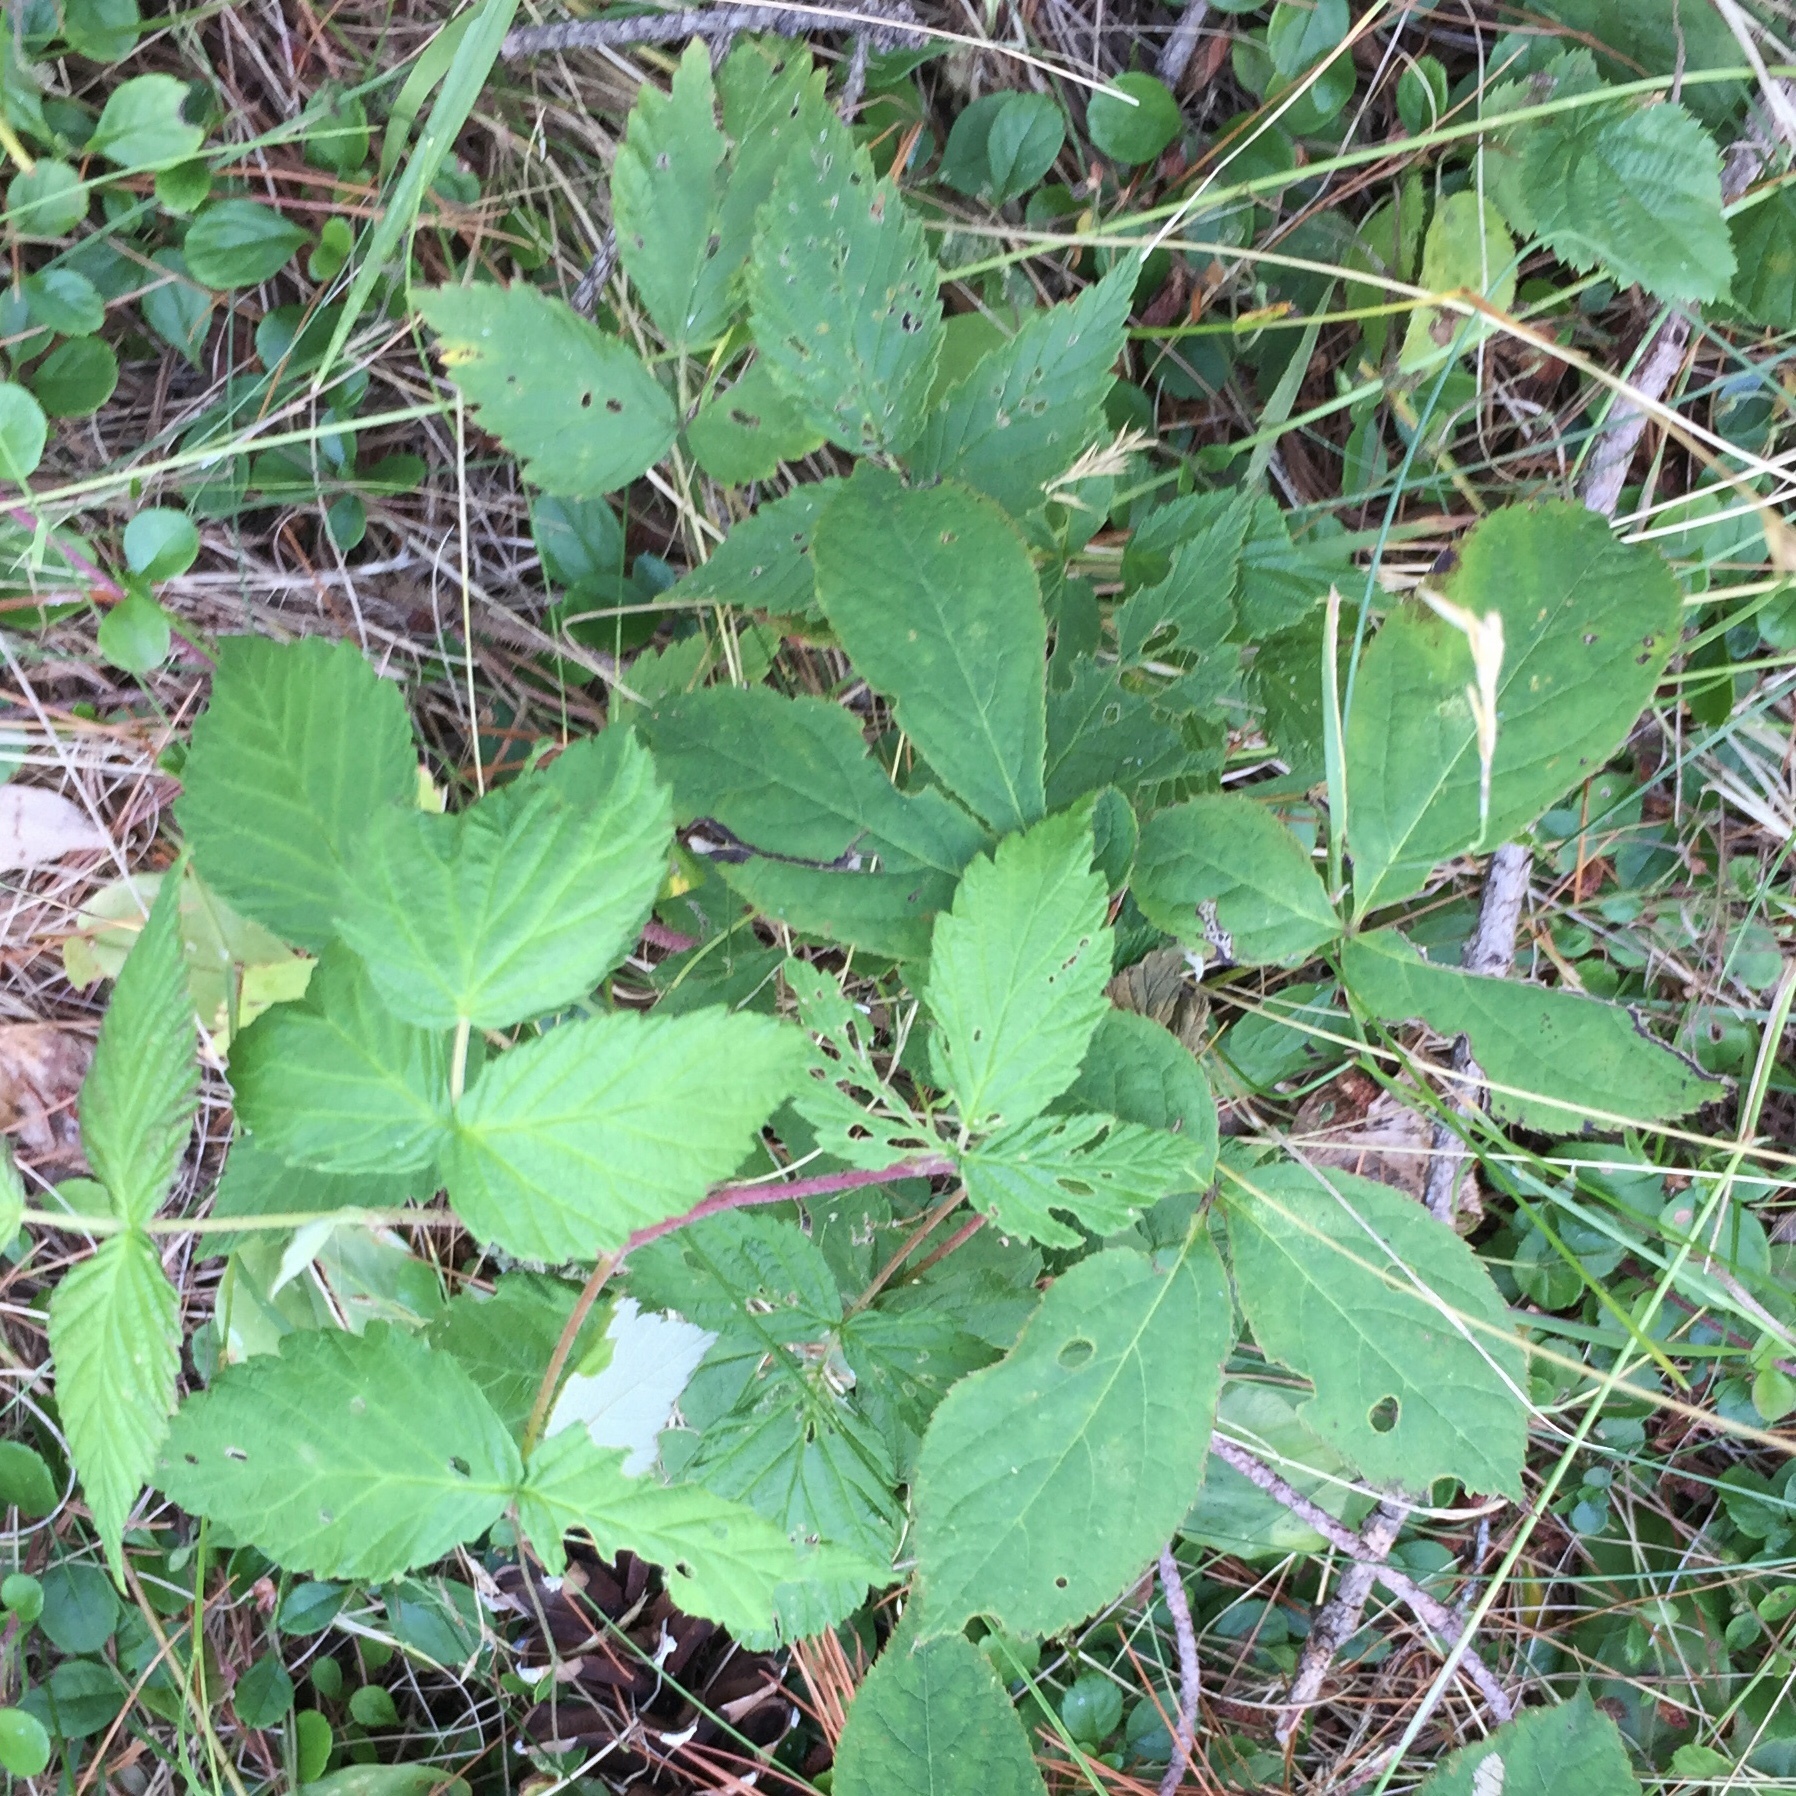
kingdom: Plantae
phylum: Tracheophyta
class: Magnoliopsida
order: Rosales
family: Rosaceae
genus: Rubus
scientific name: Rubus idaeus
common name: Raspberry
